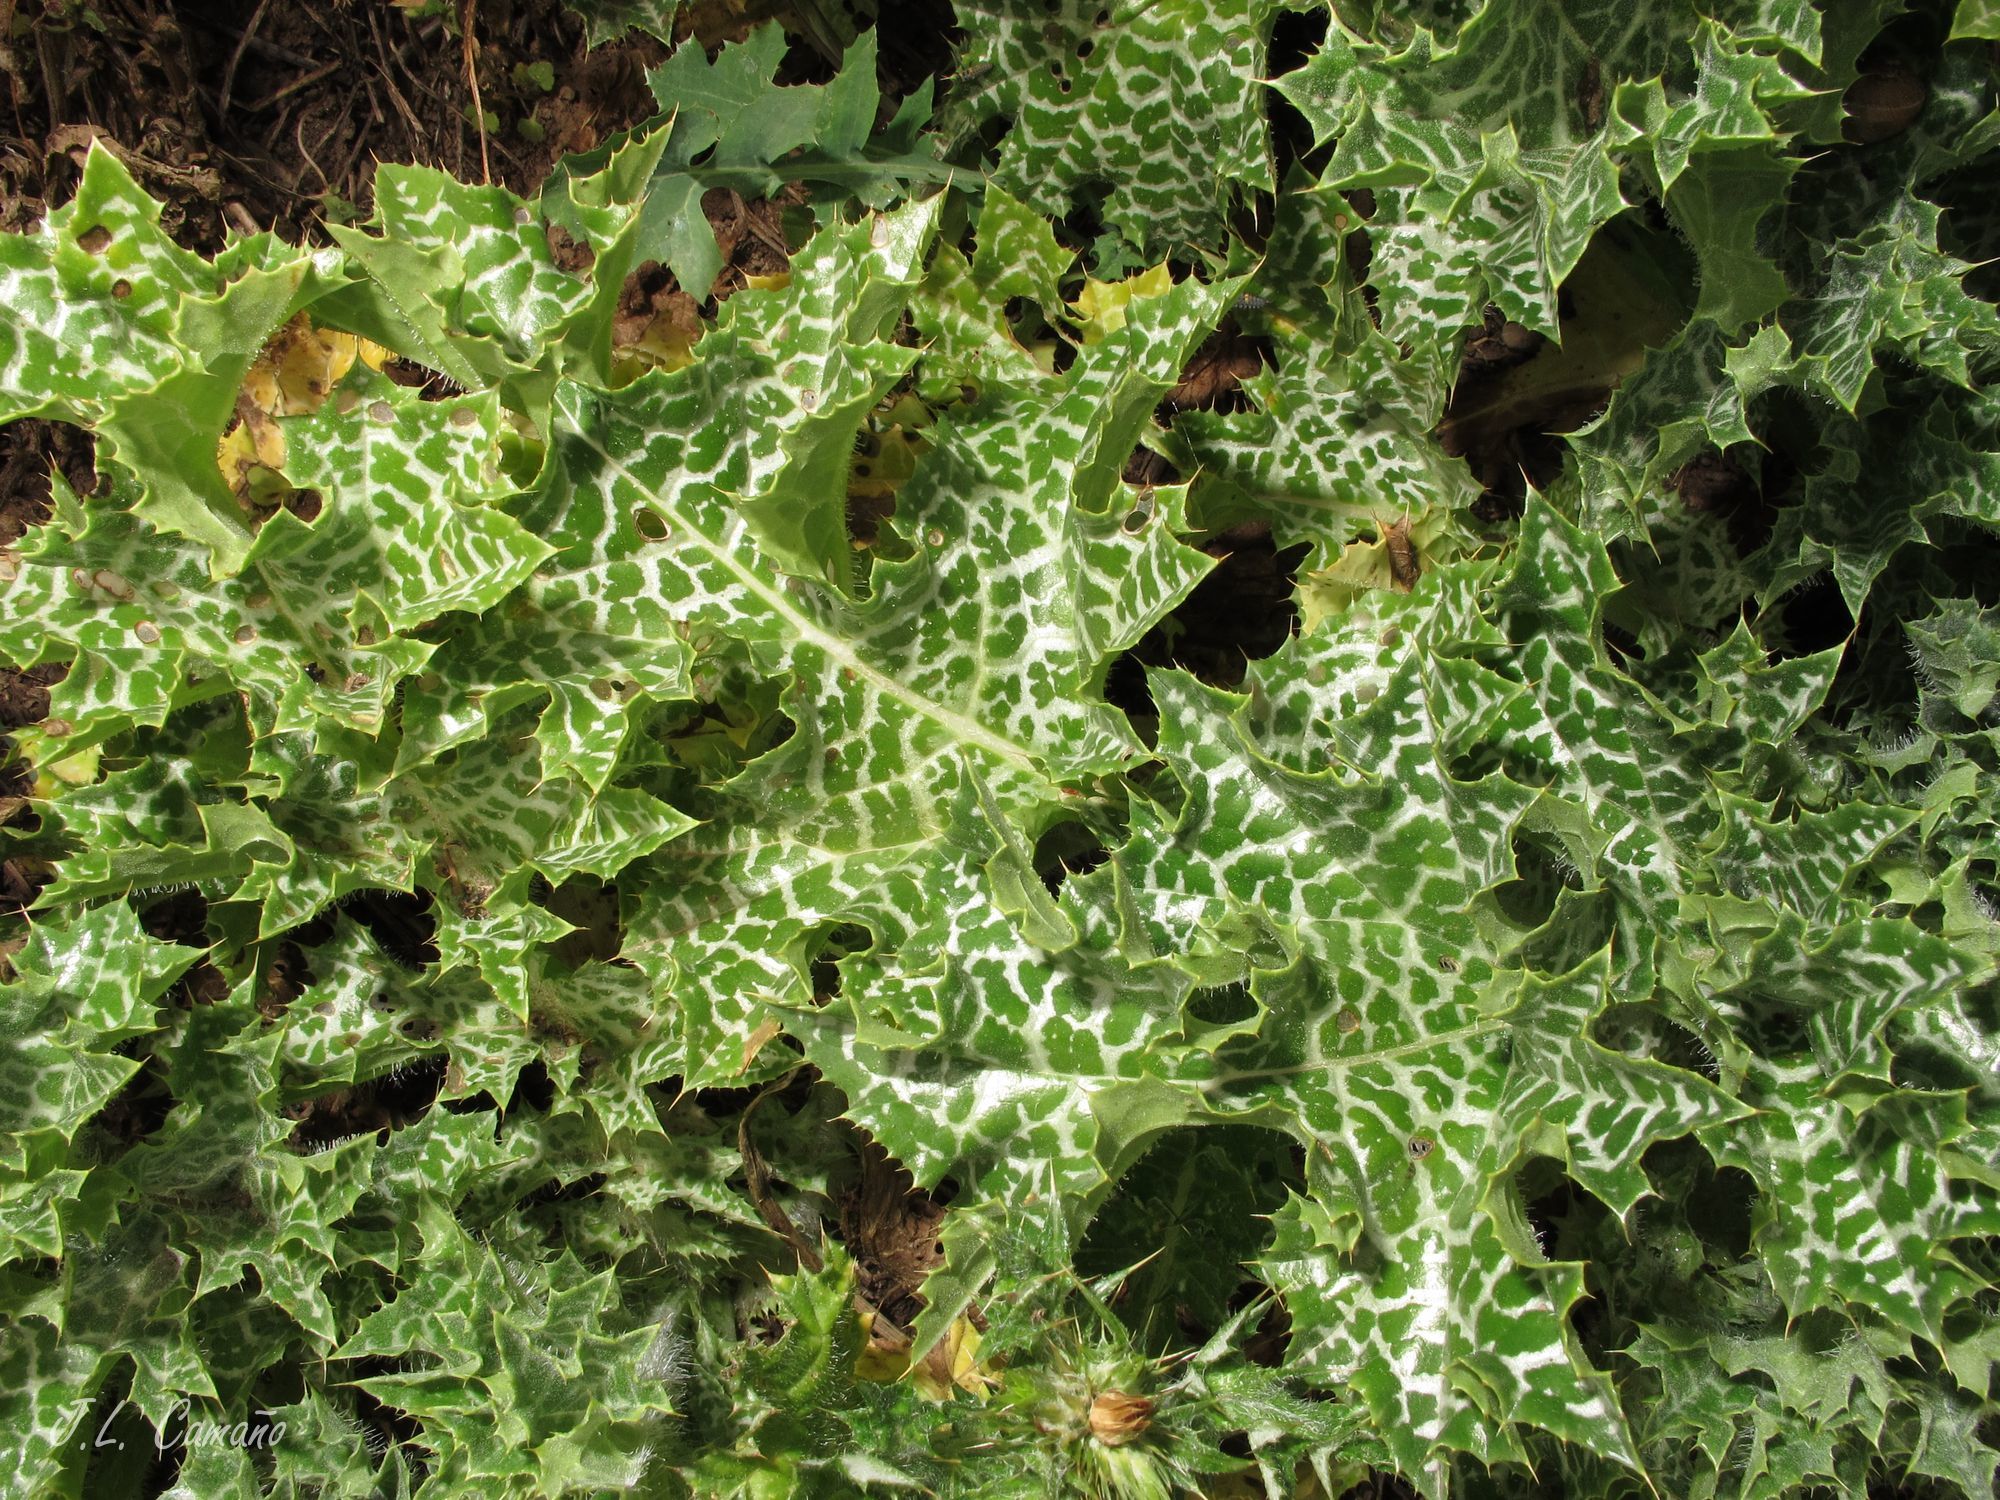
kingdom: Plantae
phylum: Tracheophyta
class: Magnoliopsida
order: Asterales
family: Asteraceae
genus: Silybum
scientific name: Silybum marianum
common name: Milk thistle
